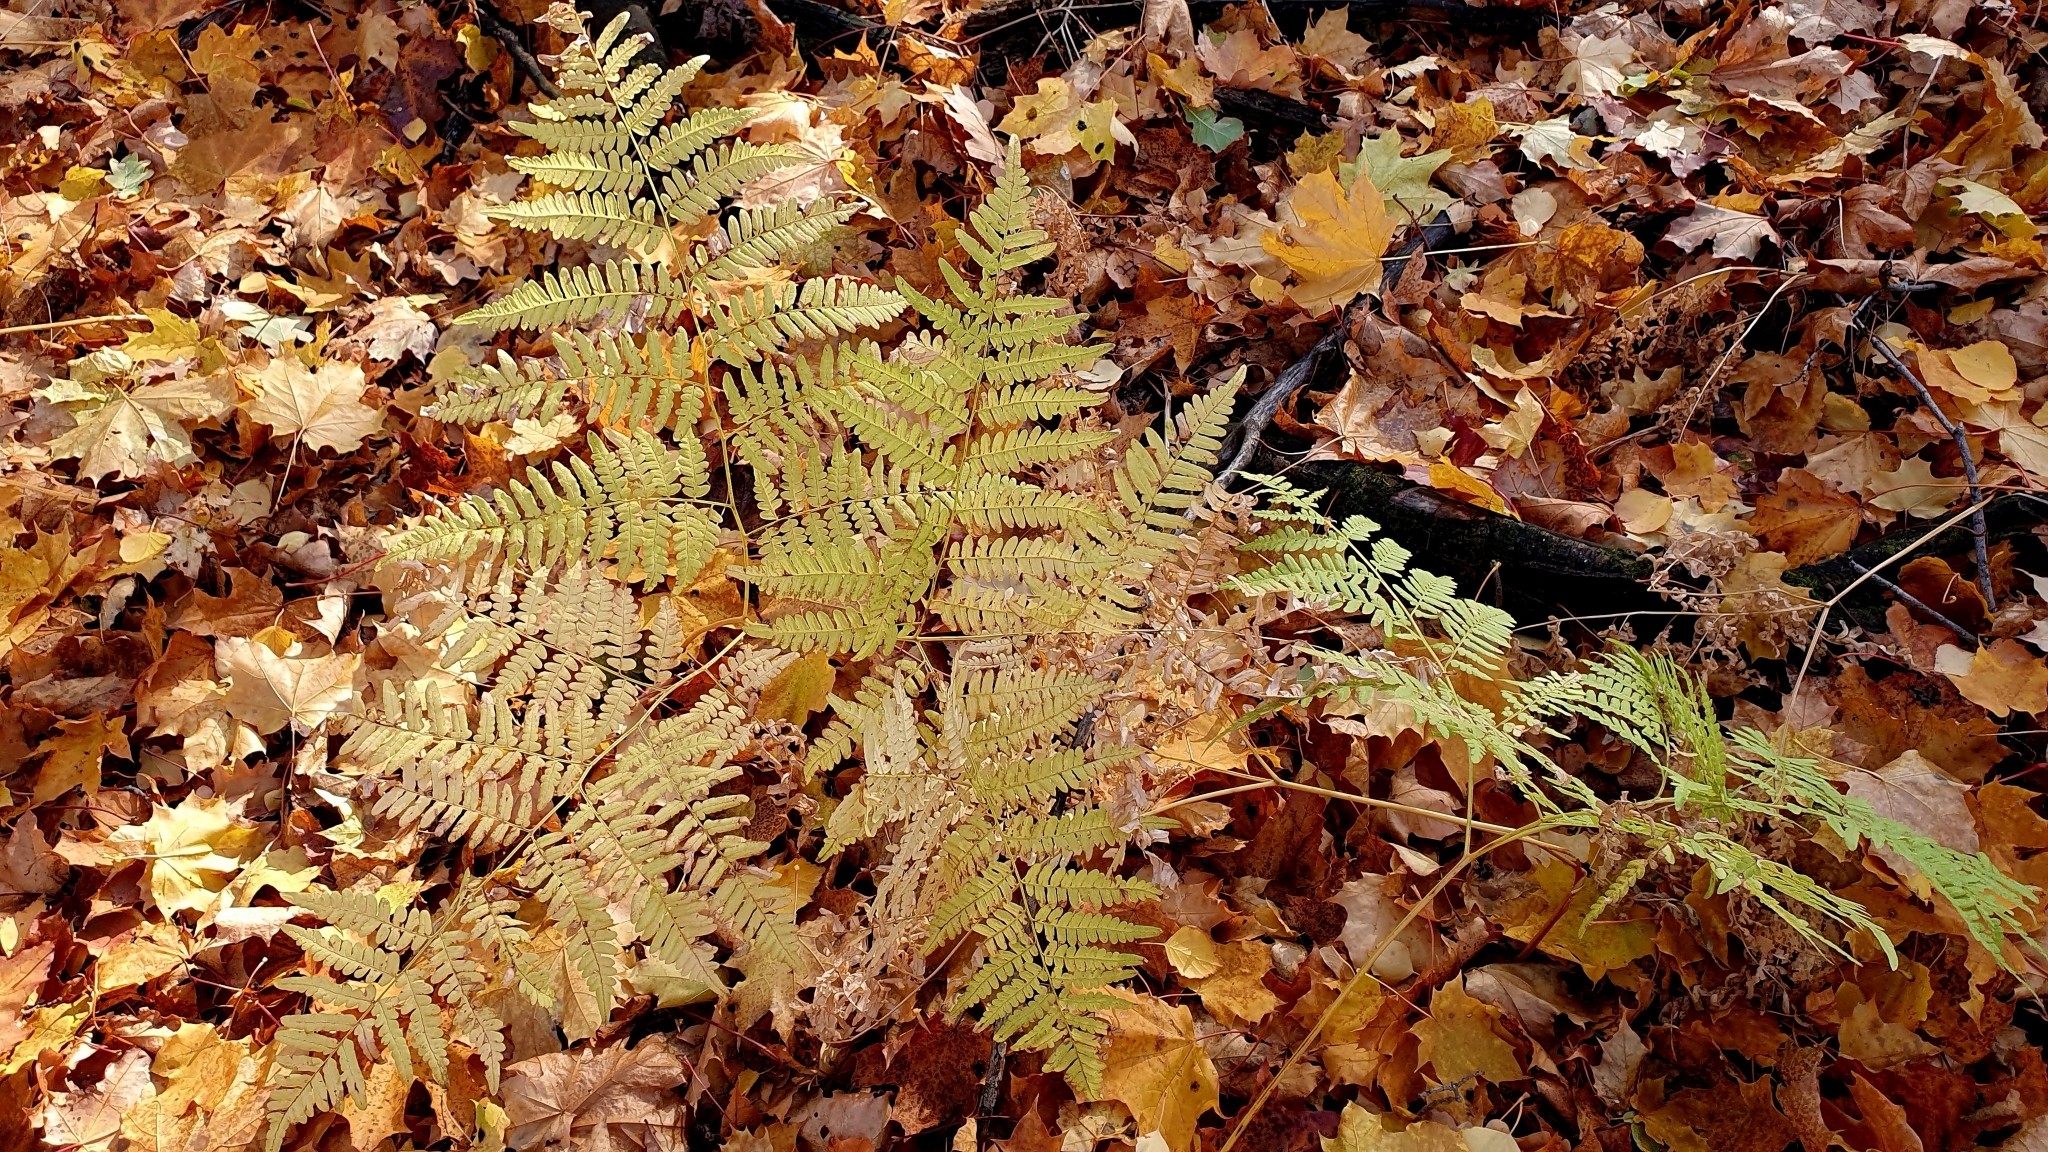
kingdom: Plantae
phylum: Tracheophyta
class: Polypodiopsida
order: Polypodiales
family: Dennstaedtiaceae
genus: Pteridium
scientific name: Pteridium aquilinum
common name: Bracken
